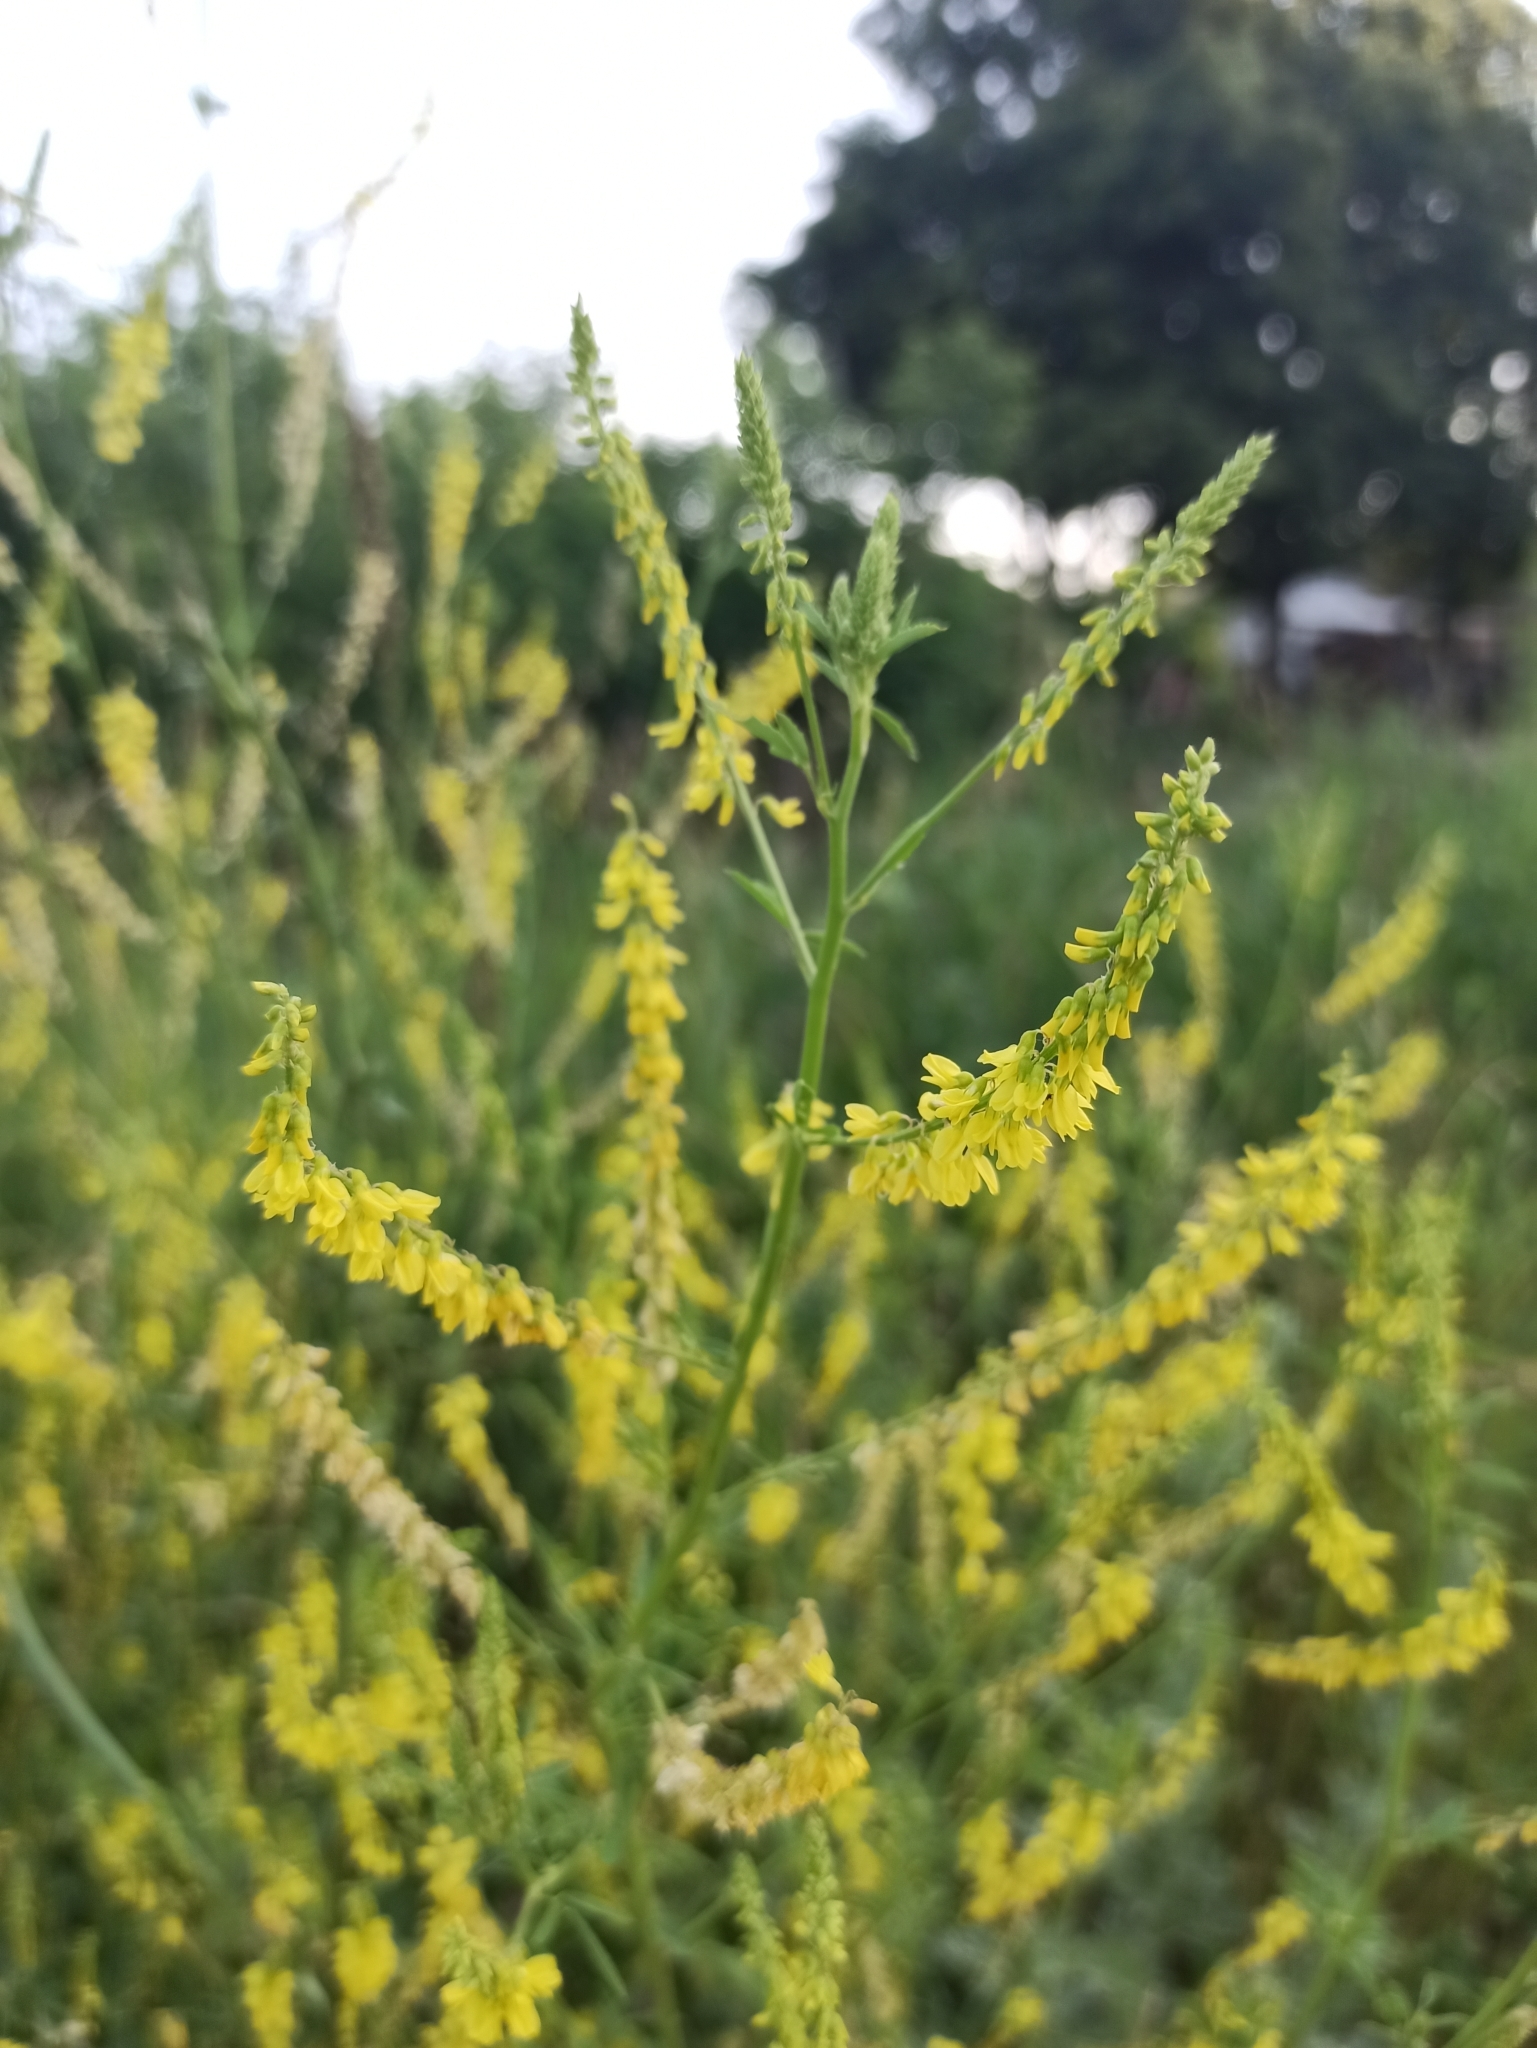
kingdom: Plantae
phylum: Tracheophyta
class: Magnoliopsida
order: Fabales
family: Fabaceae
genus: Melilotus
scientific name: Melilotus officinalis
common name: Sweetclover
